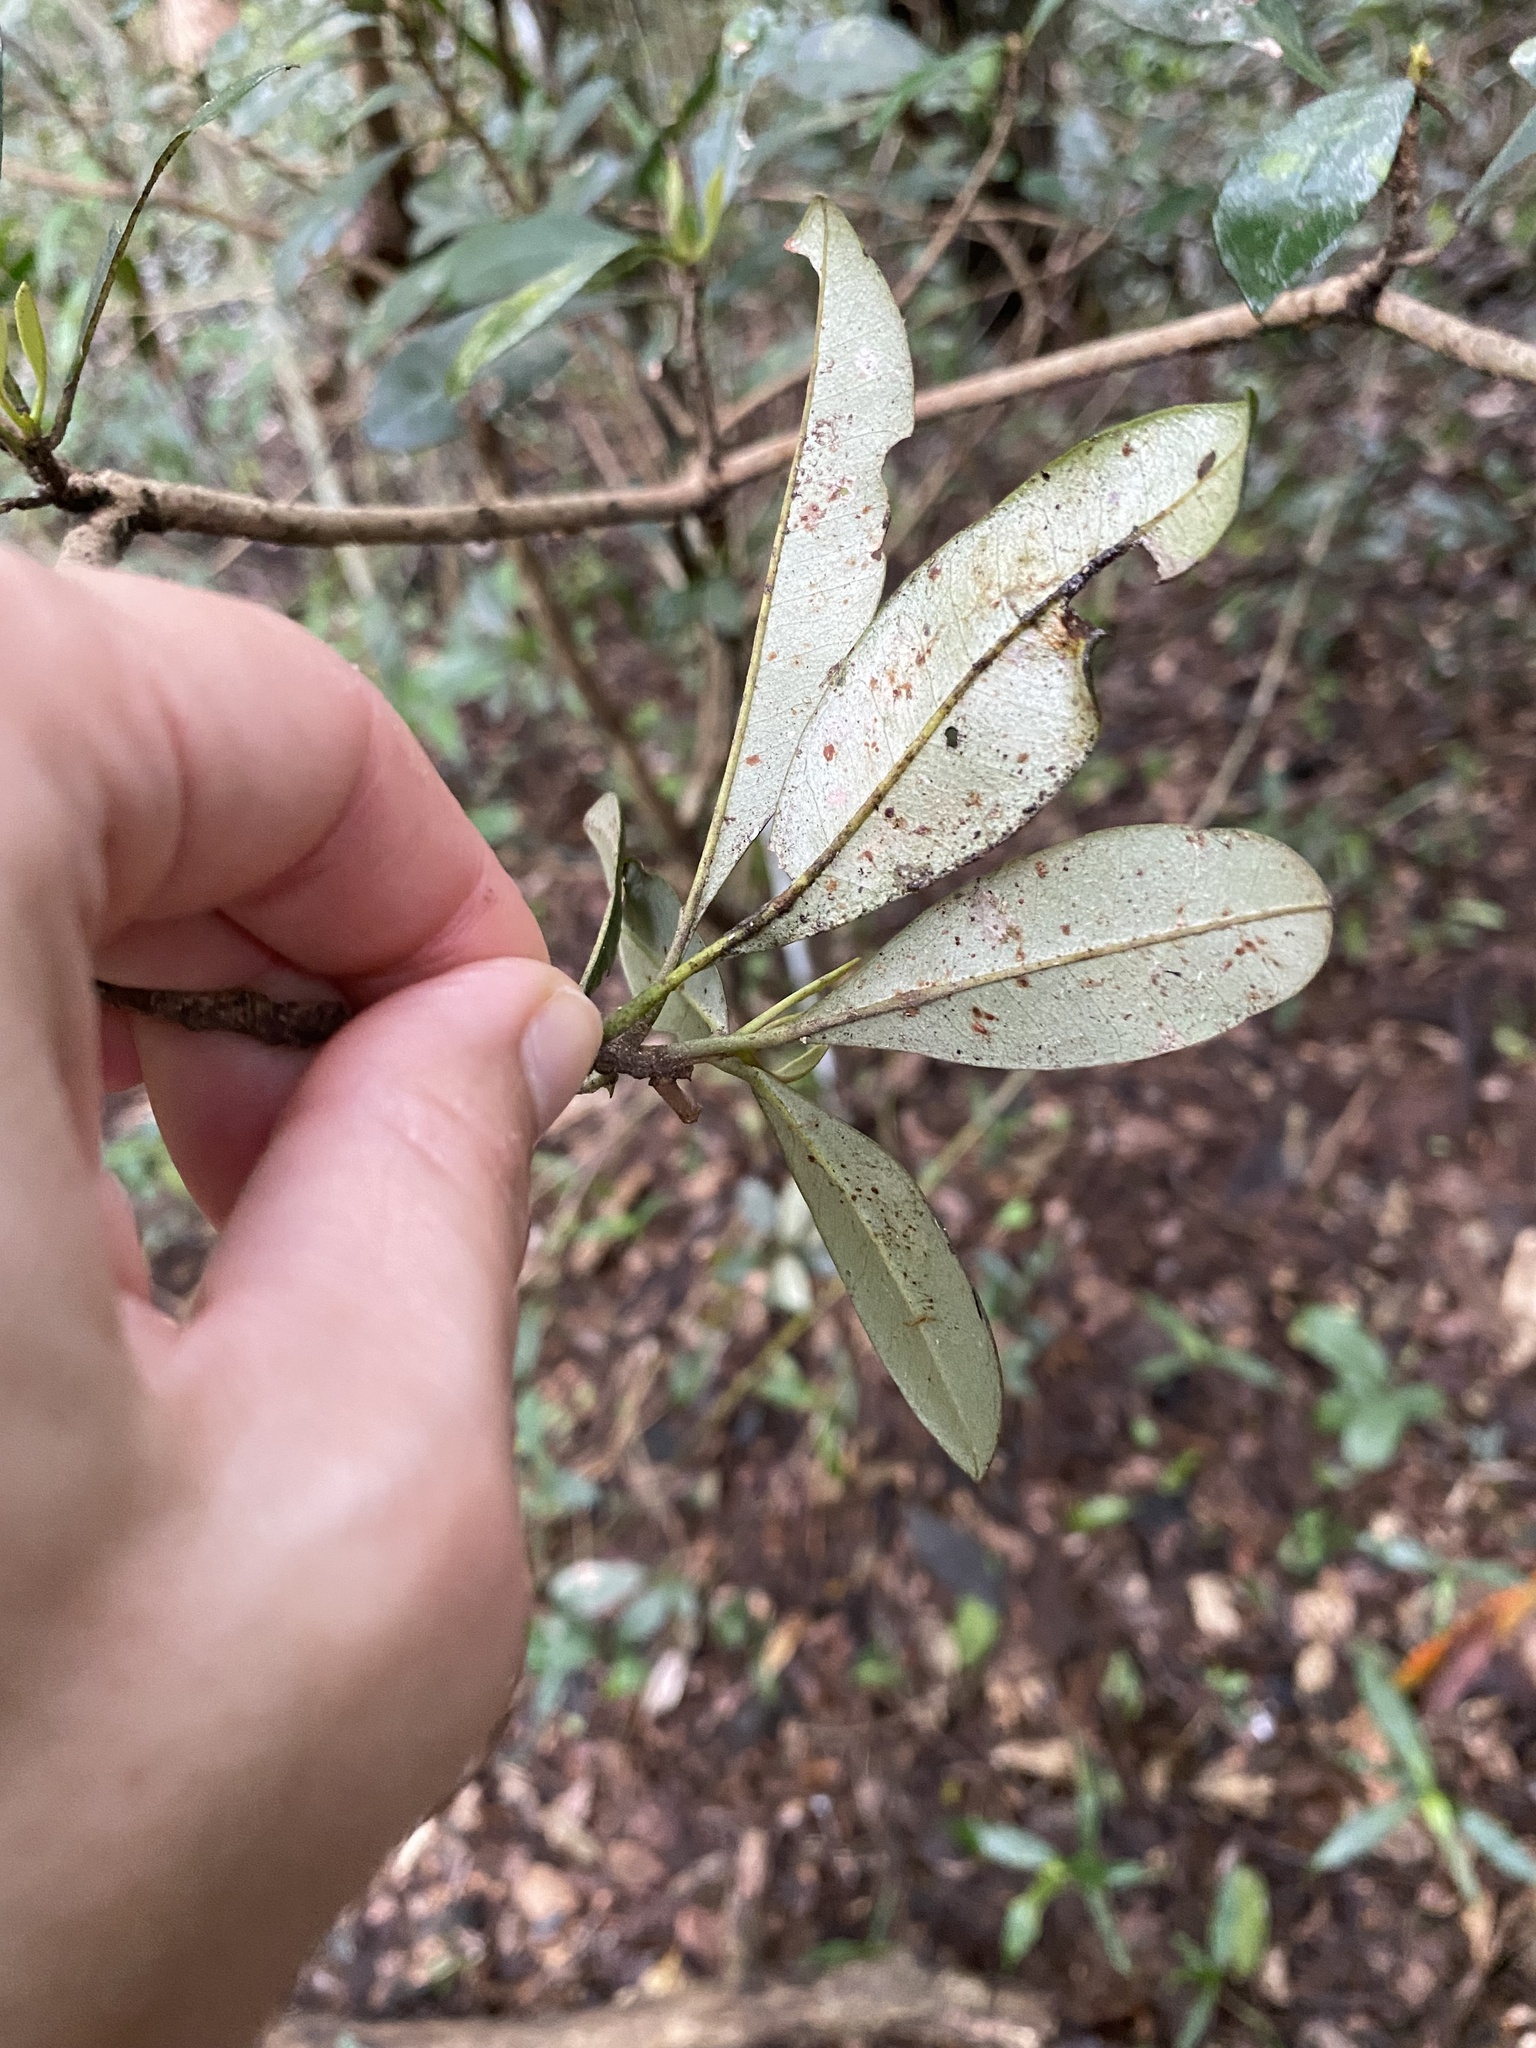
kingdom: Plantae
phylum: Tracheophyta
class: Magnoliopsida
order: Ericales
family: Sapotaceae
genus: Englerophytum
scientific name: Englerophytum natalense
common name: Silver-leaved milkplum
